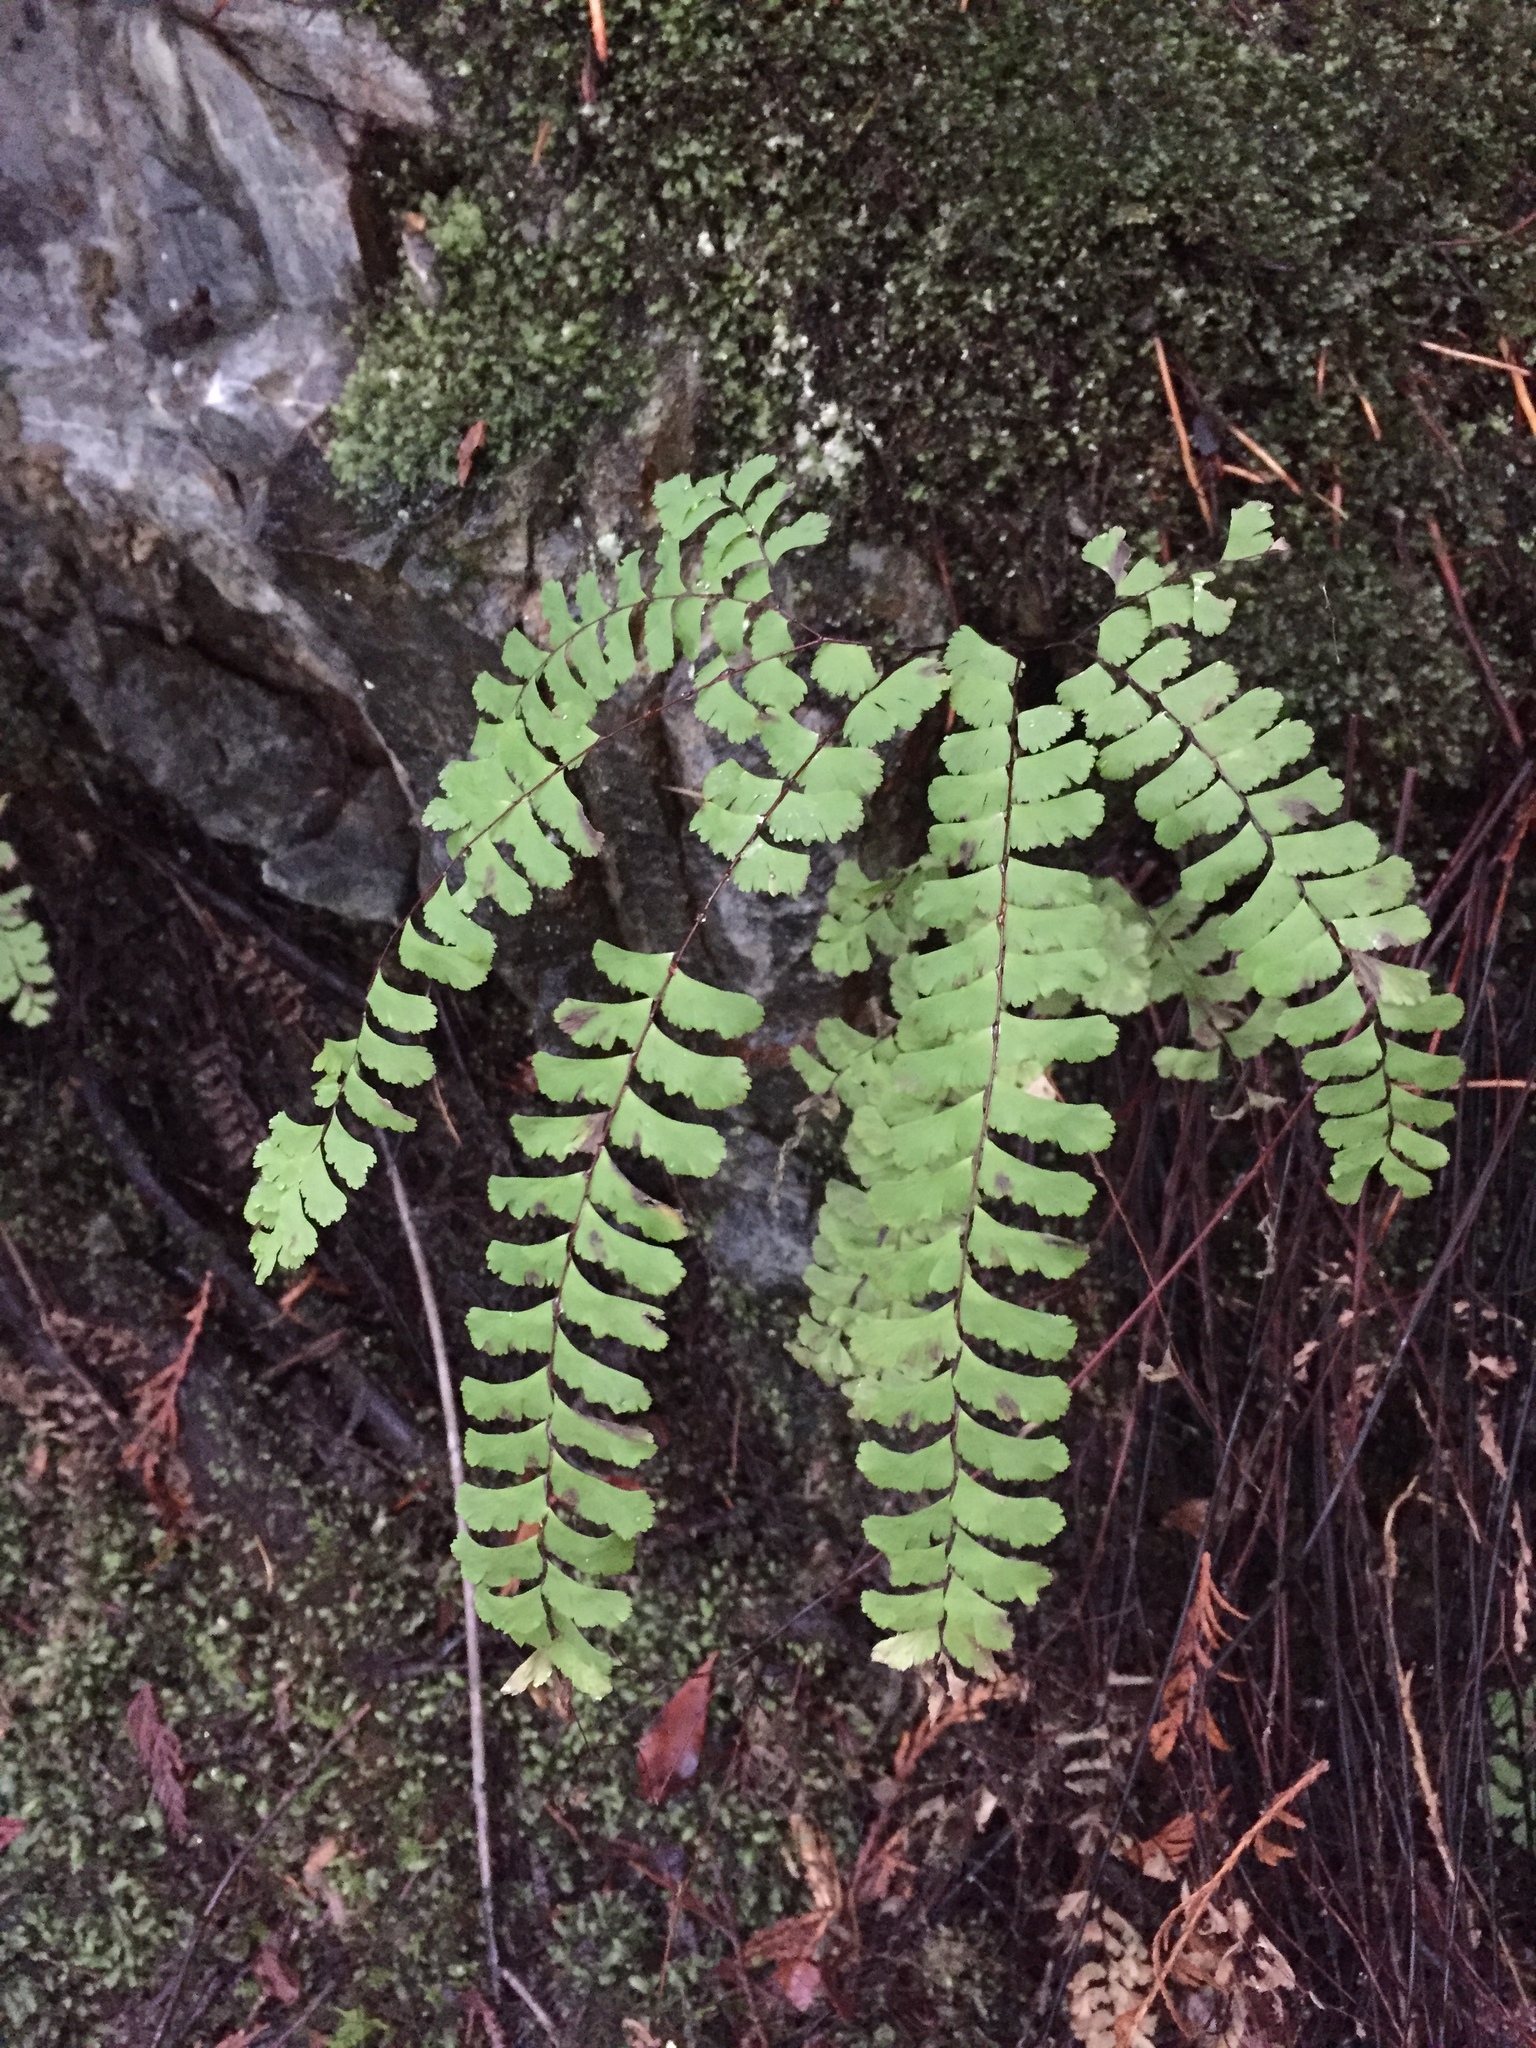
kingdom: Plantae
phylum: Tracheophyta
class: Polypodiopsida
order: Polypodiales
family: Pteridaceae
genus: Adiantum
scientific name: Adiantum aleuticum
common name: Aleutian maidenhair fern
